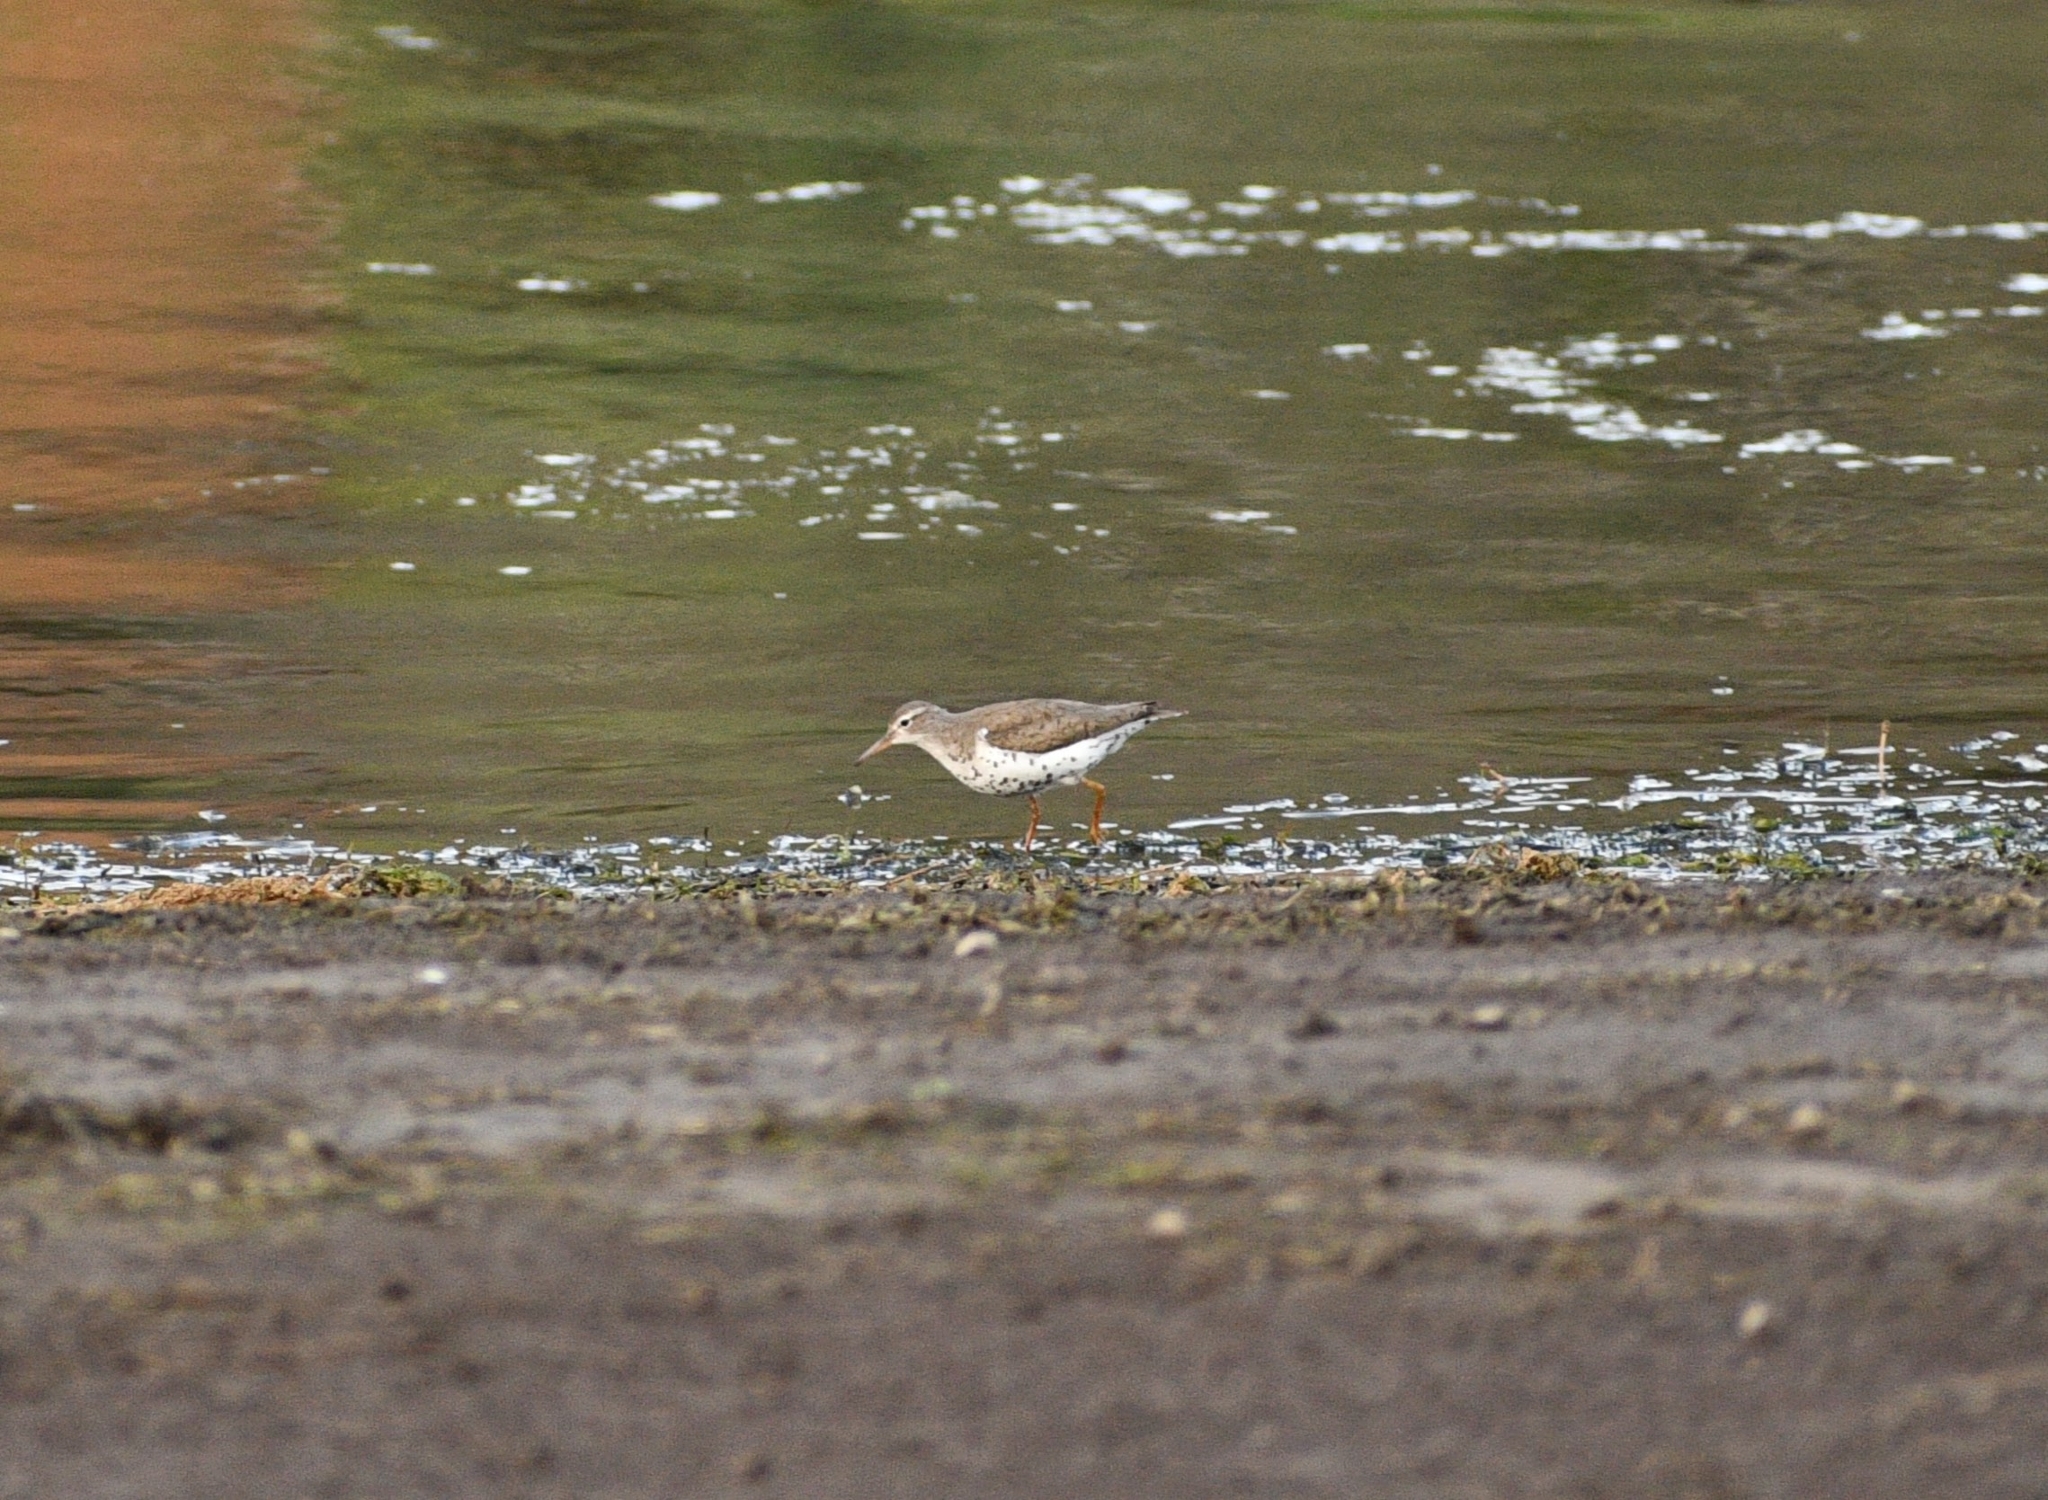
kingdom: Animalia
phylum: Chordata
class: Aves
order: Charadriiformes
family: Scolopacidae
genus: Actitis
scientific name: Actitis macularius
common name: Spotted sandpiper
